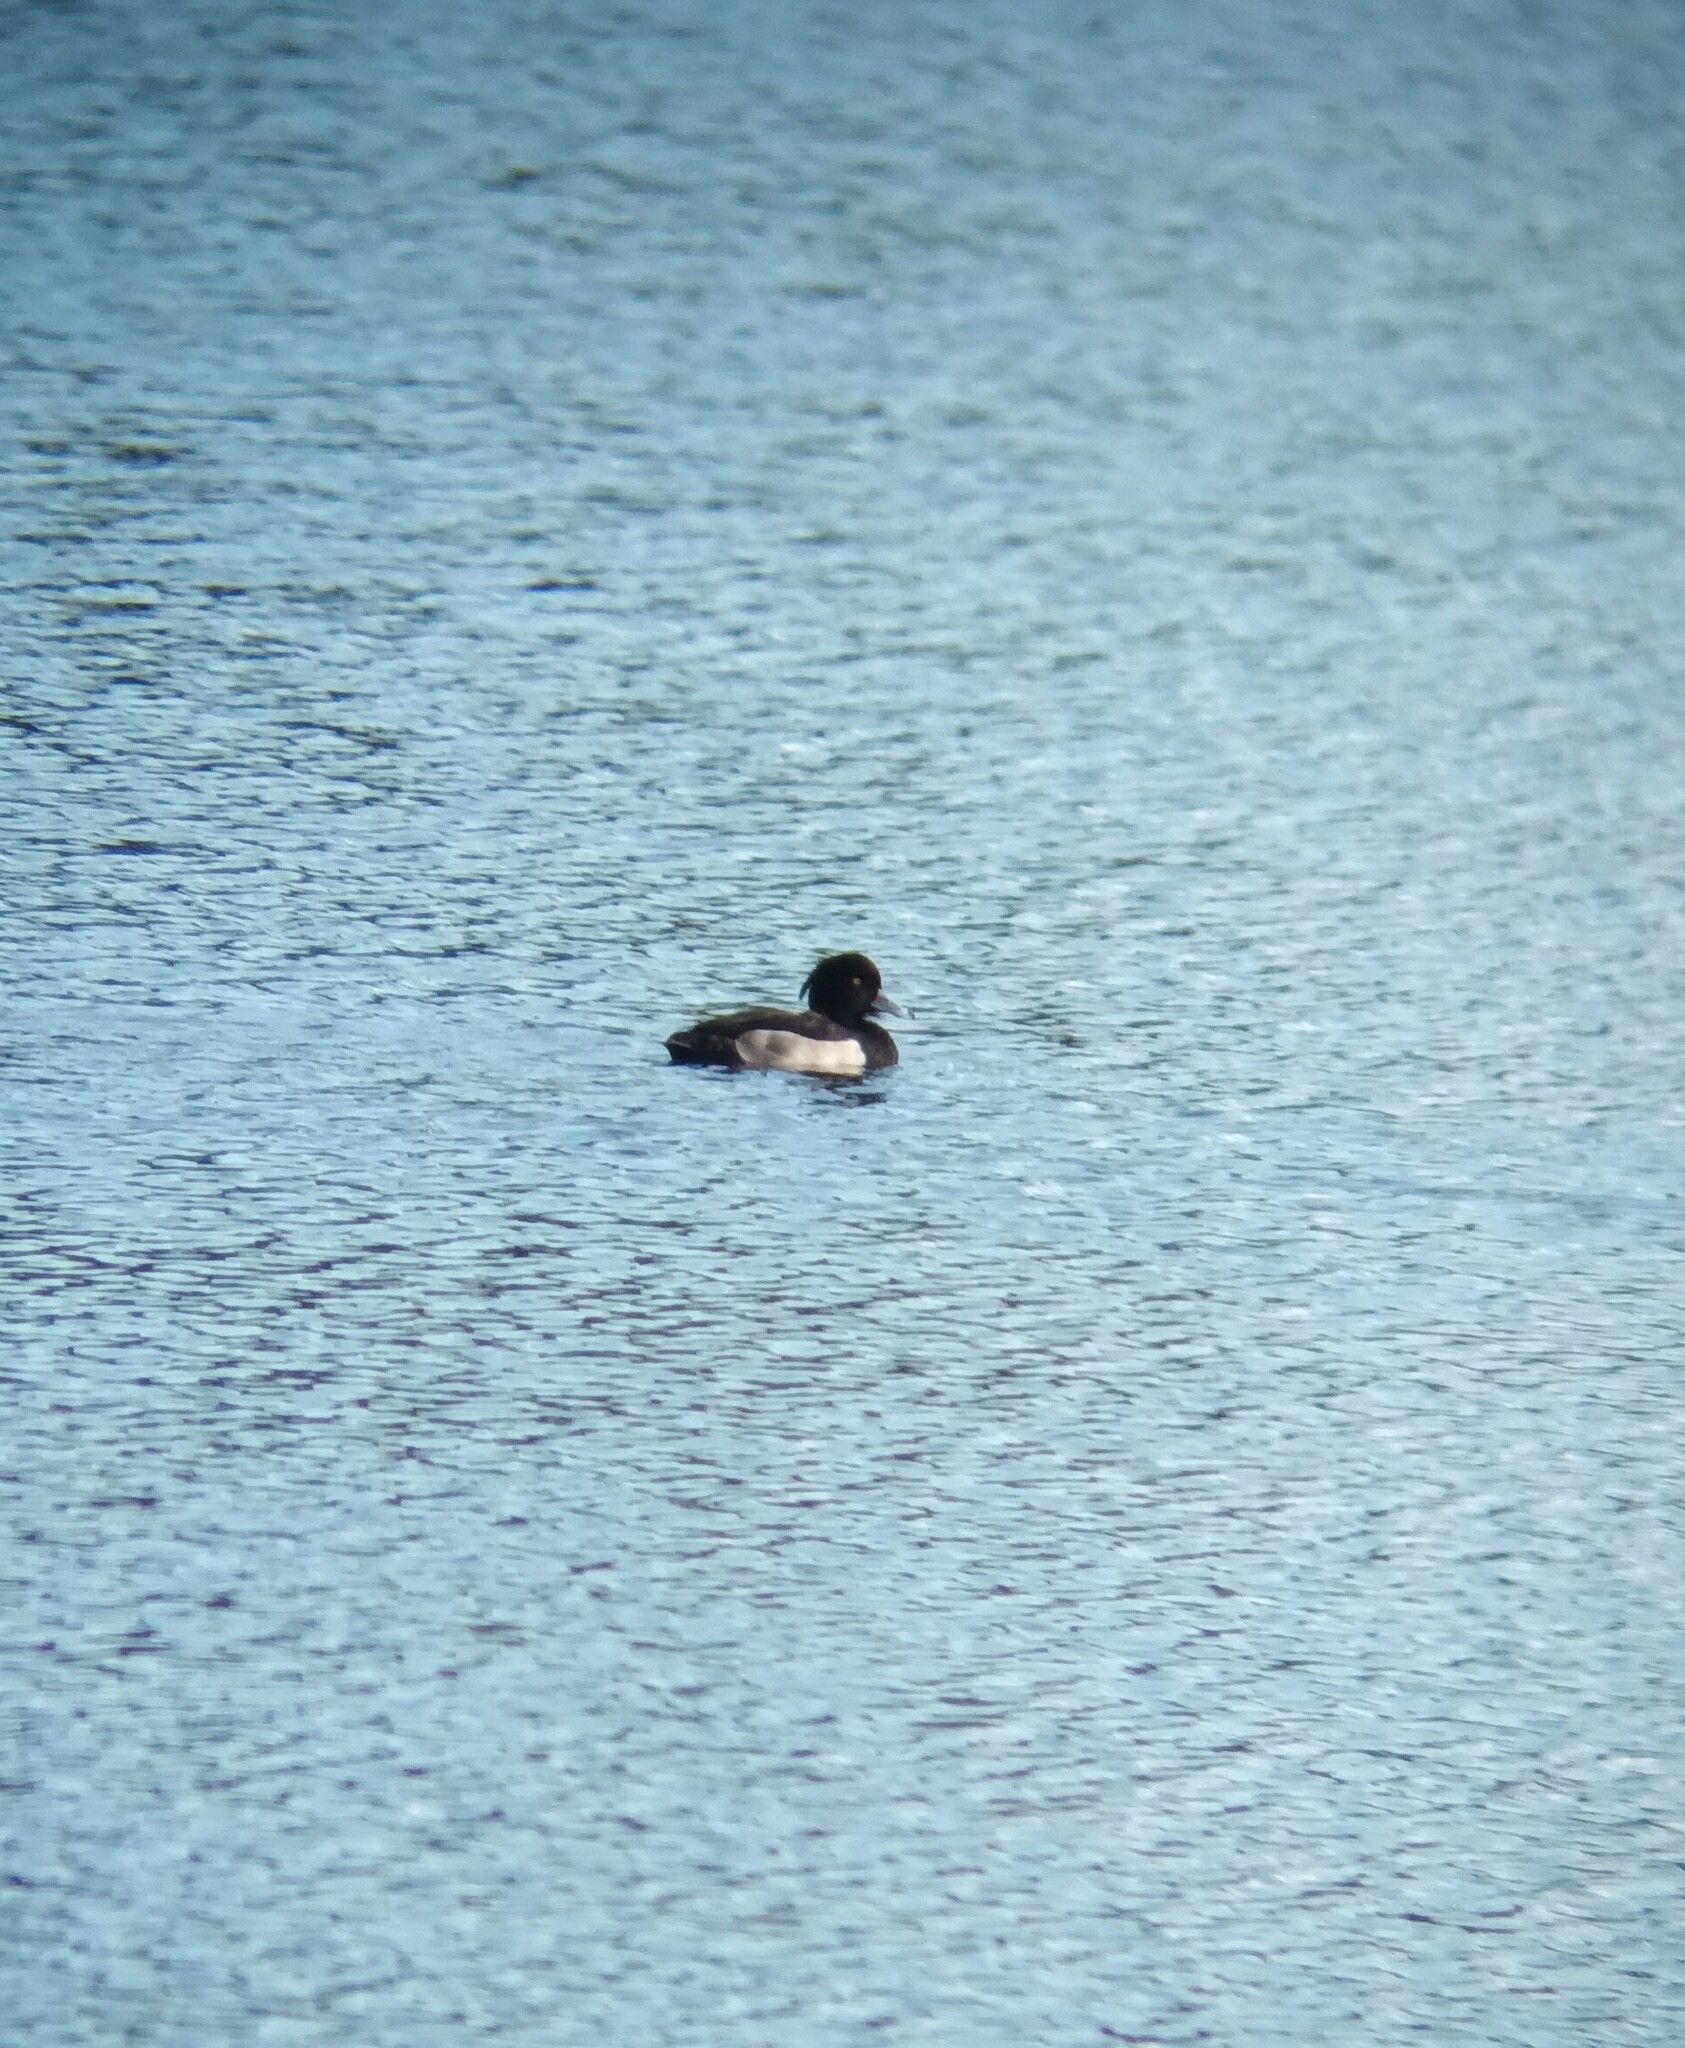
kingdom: Animalia
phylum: Chordata
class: Aves
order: Anseriformes
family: Anatidae
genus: Aythya
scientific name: Aythya fuligula
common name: Tufted duck
